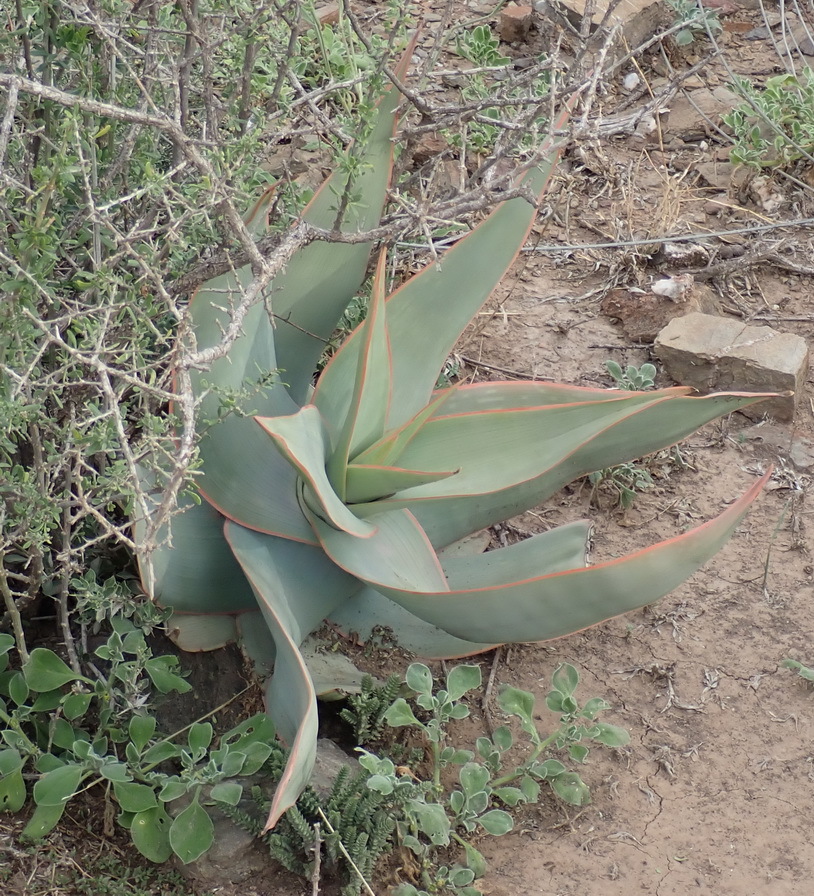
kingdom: Plantae
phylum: Tracheophyta
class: Liliopsida
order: Asparagales
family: Asphodelaceae
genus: Aloe
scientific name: Aloe striata
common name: Coral aloe
